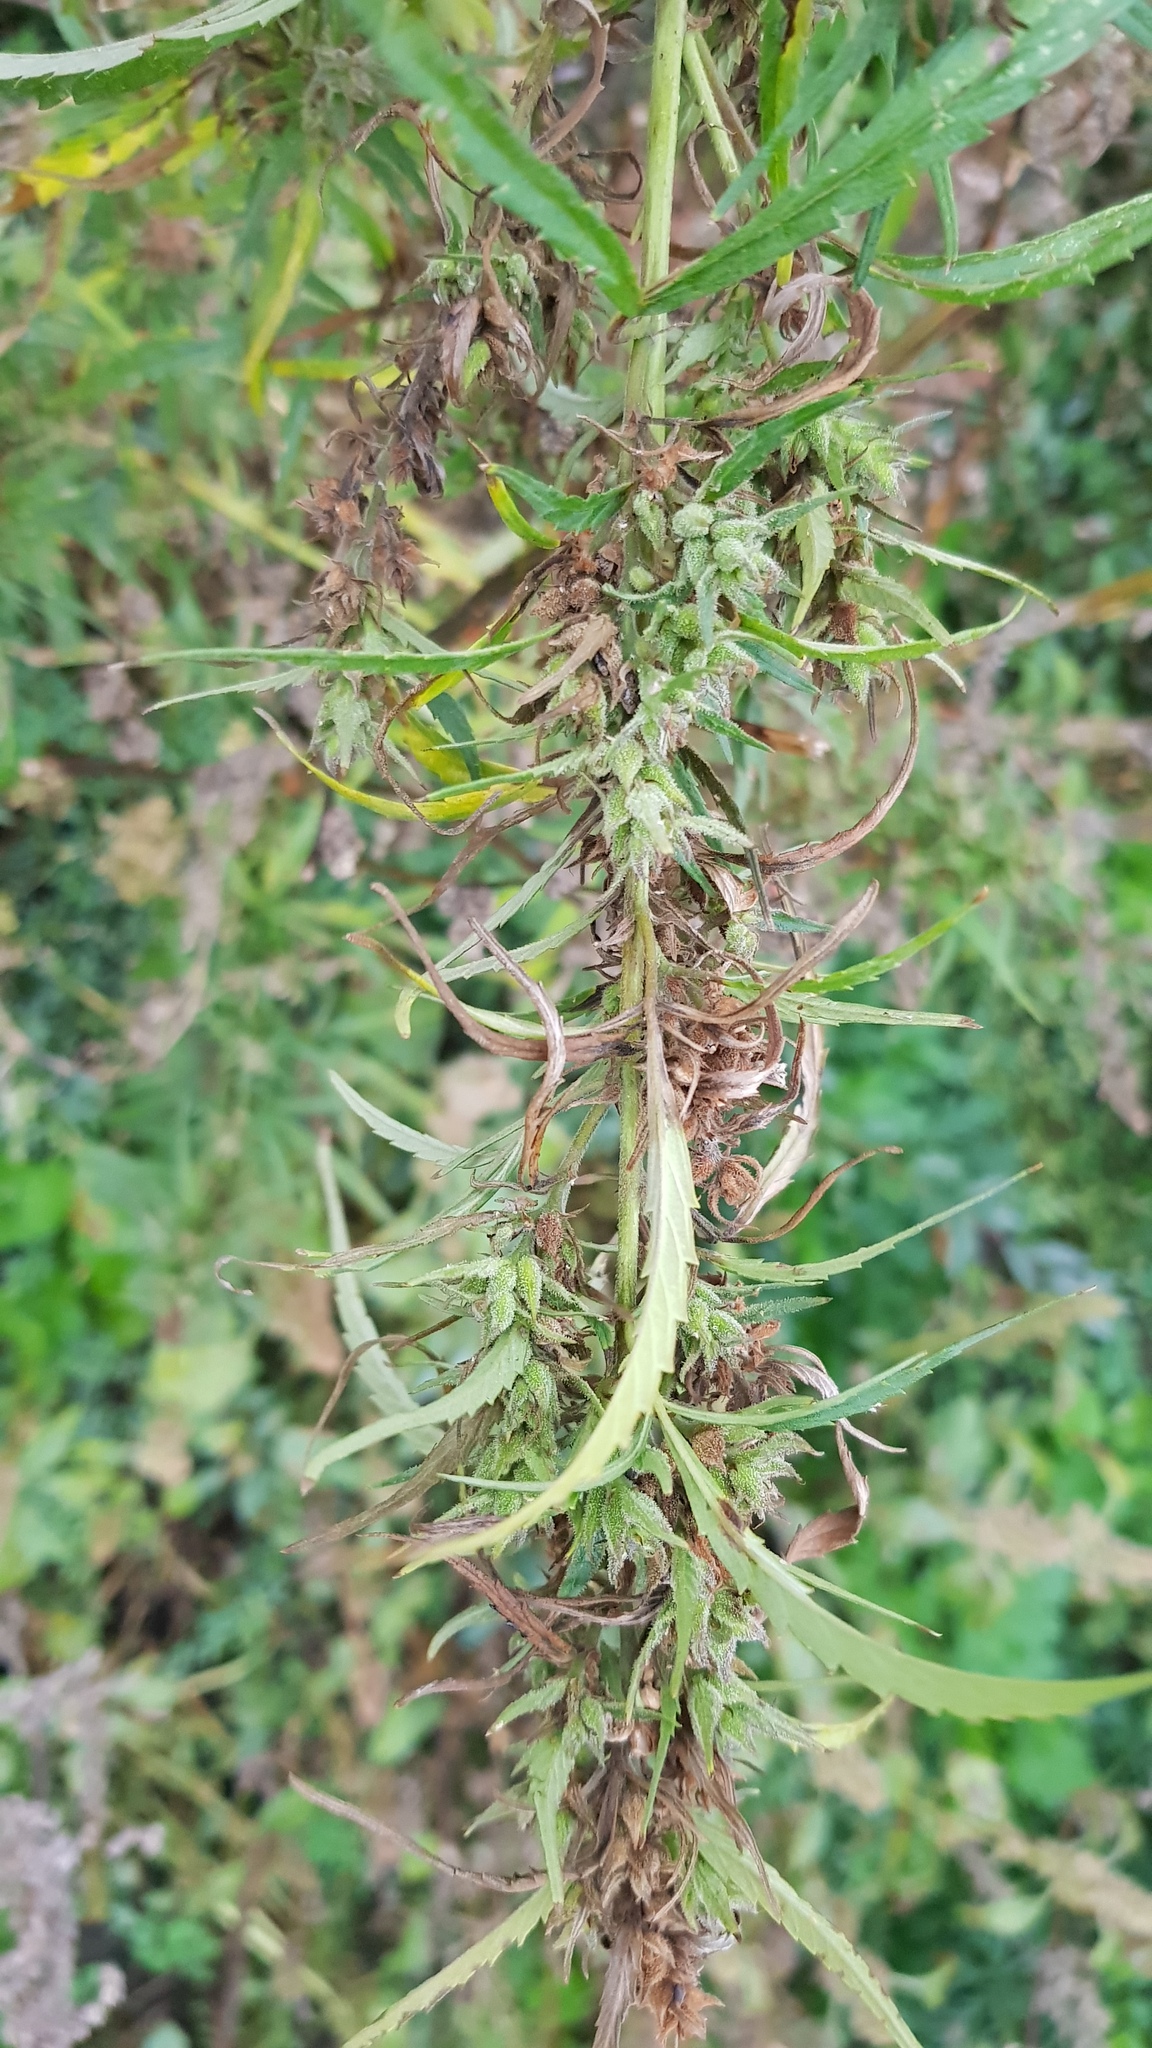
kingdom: Plantae
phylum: Tracheophyta
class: Magnoliopsida
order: Rosales
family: Cannabaceae
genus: Cannabis
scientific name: Cannabis sativa
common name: Hemp
